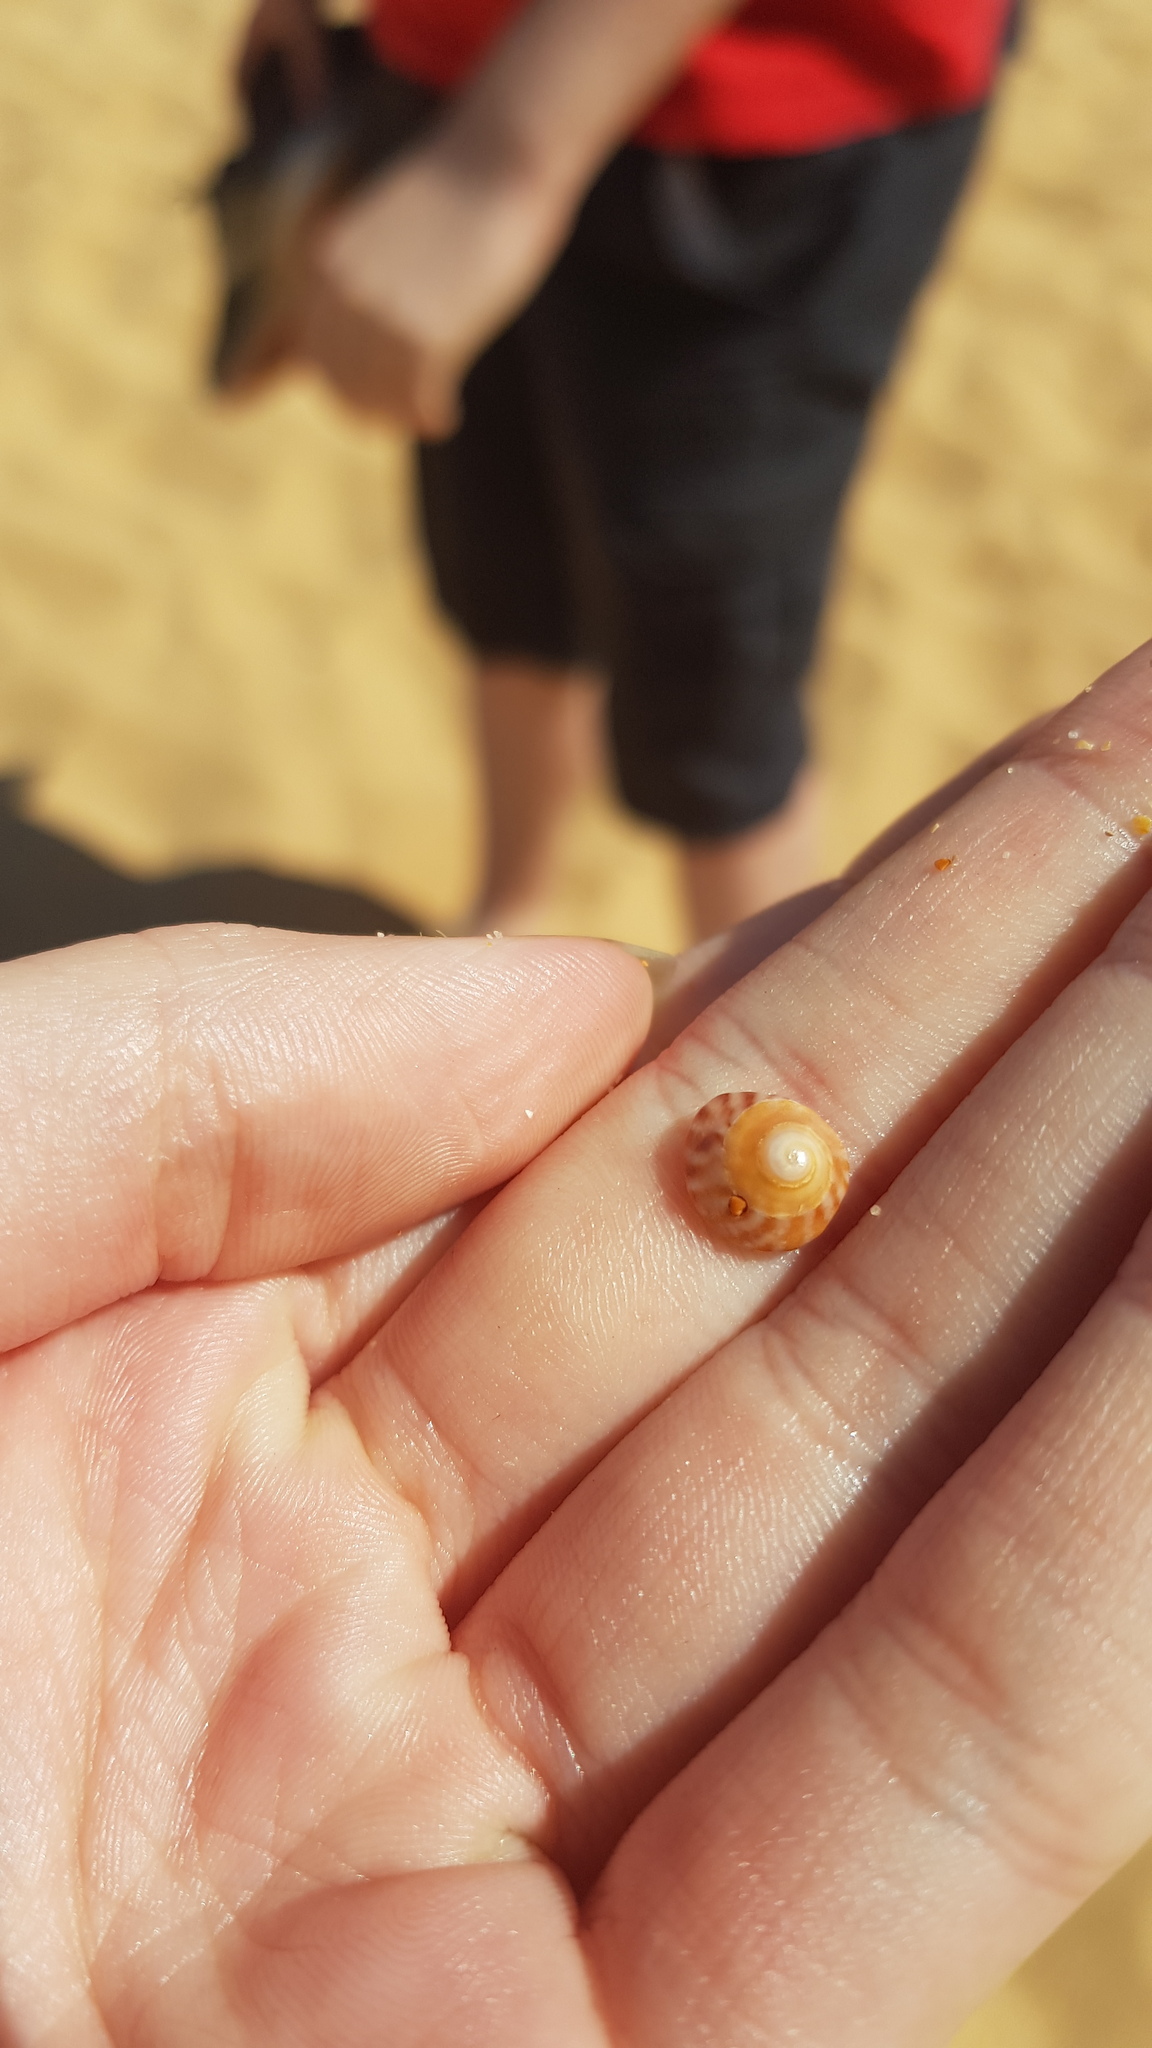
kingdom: Animalia
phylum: Mollusca
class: Gastropoda
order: Littorinimorpha
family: Littorinidae
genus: Bembicium
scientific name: Bembicium nanum
